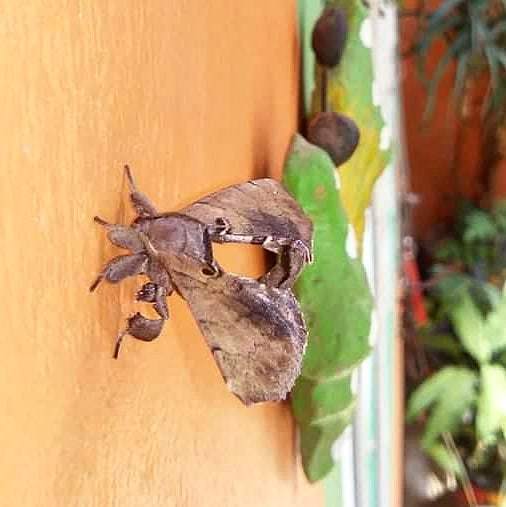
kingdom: Animalia
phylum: Arthropoda
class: Insecta
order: Lepidoptera
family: Apatelodidae
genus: Hygrochroa
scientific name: Hygrochroa Apatelodes torrefacta
